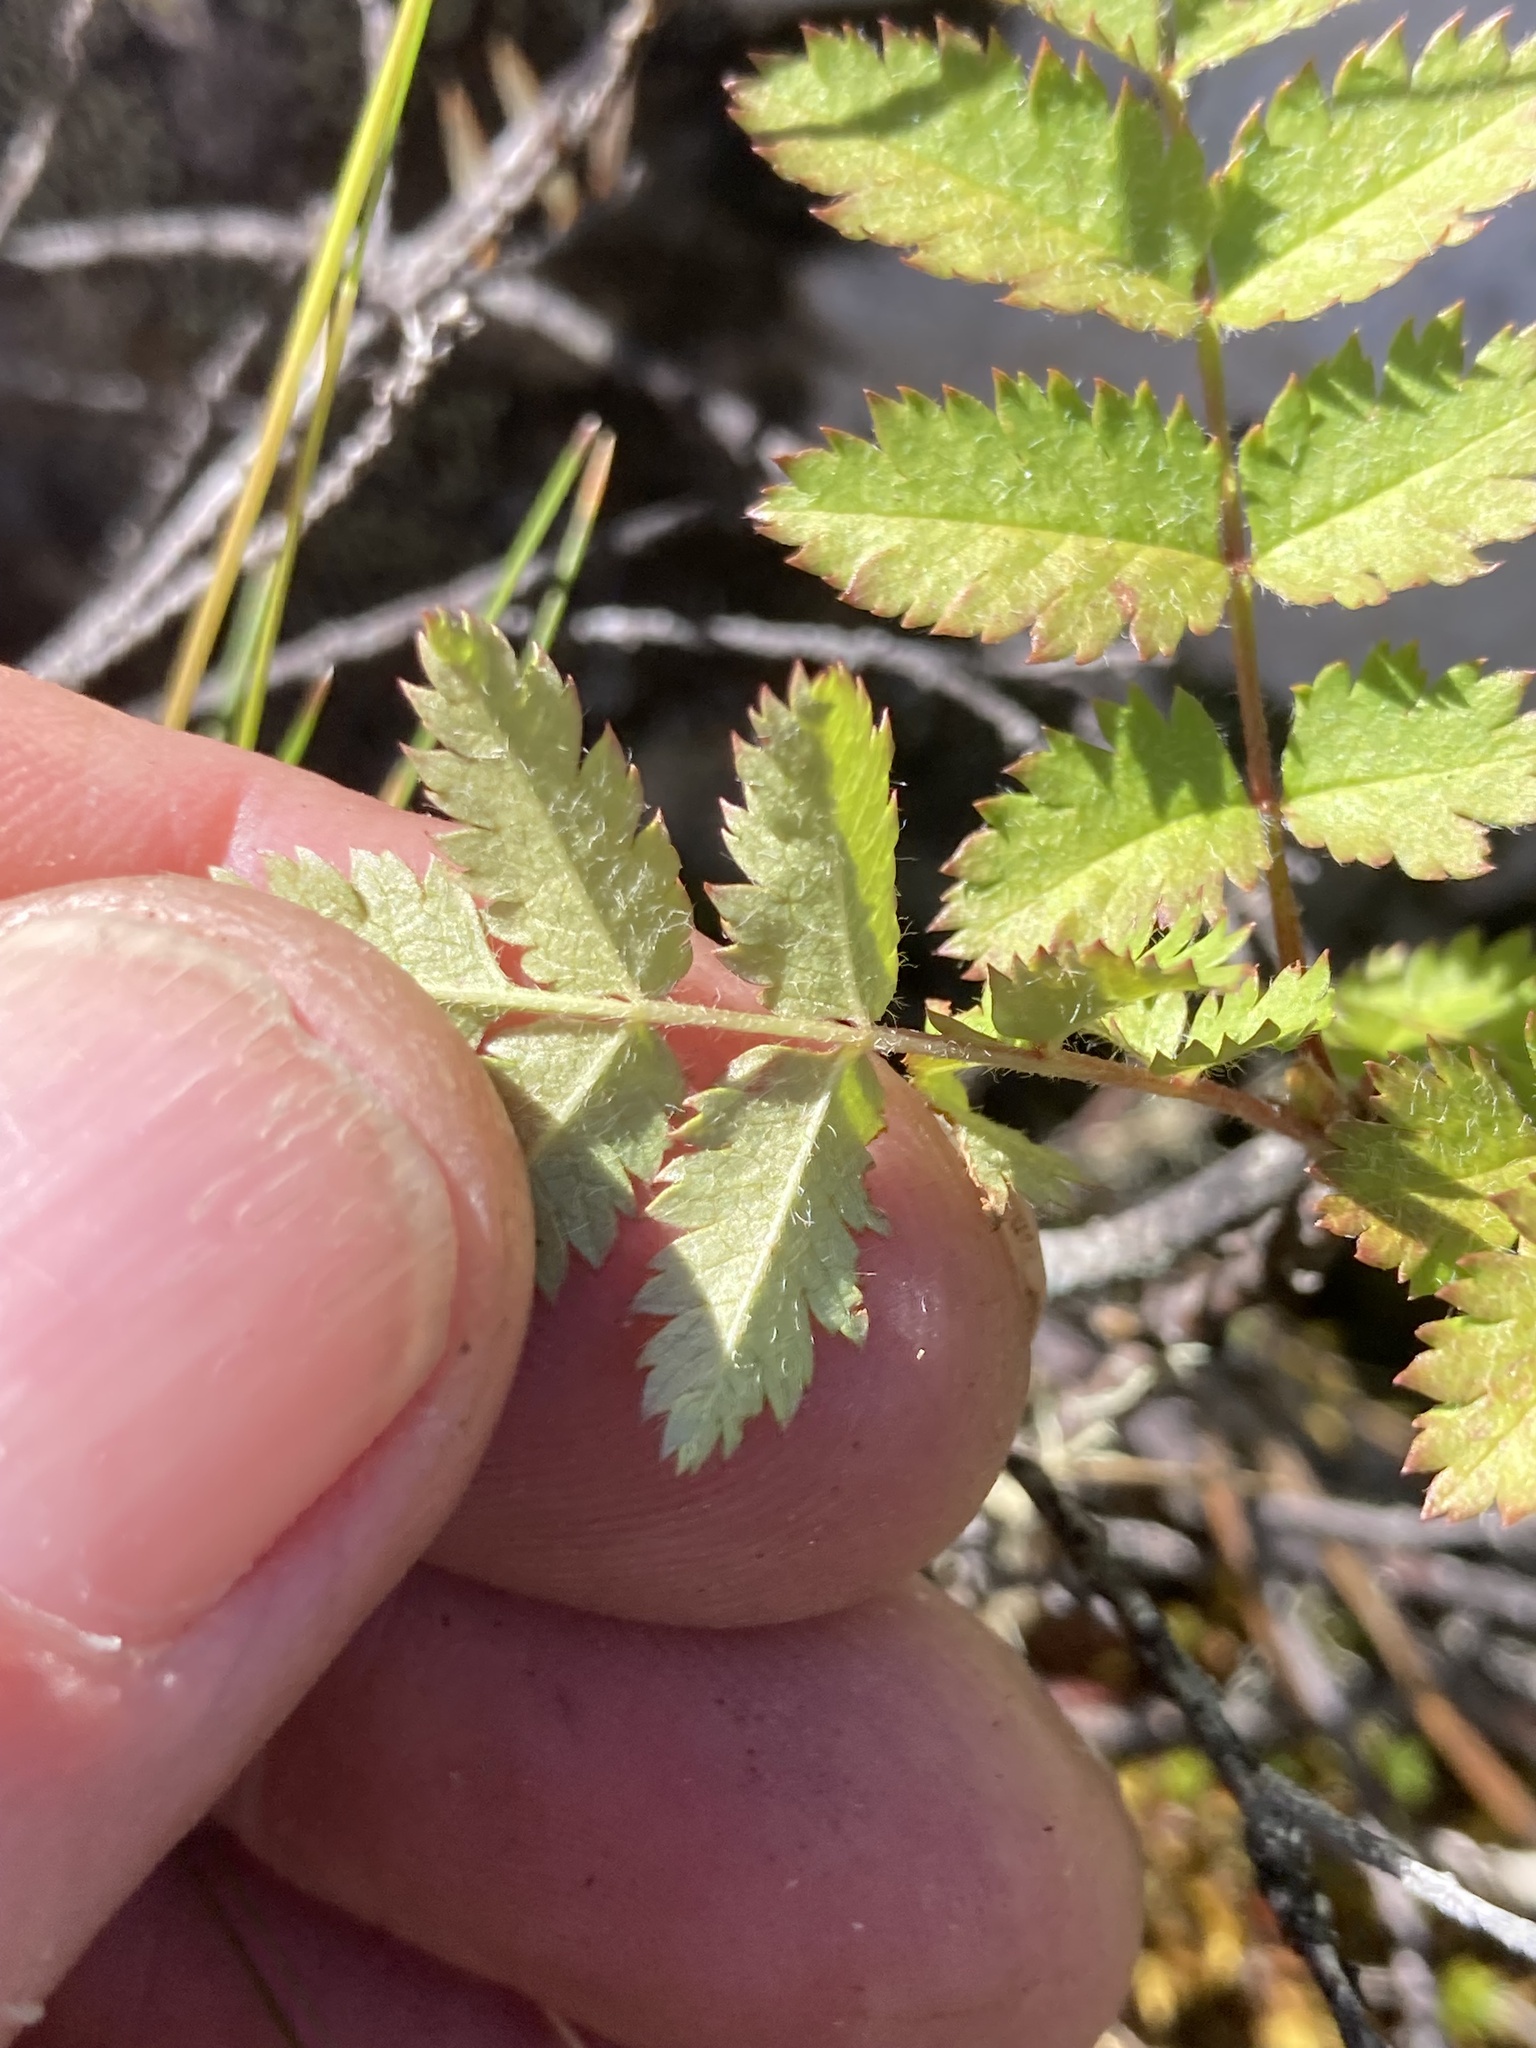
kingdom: Plantae
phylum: Tracheophyta
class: Magnoliopsida
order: Rosales
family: Rosaceae
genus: Sorbus
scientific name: Sorbus aucuparia
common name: Rowan
